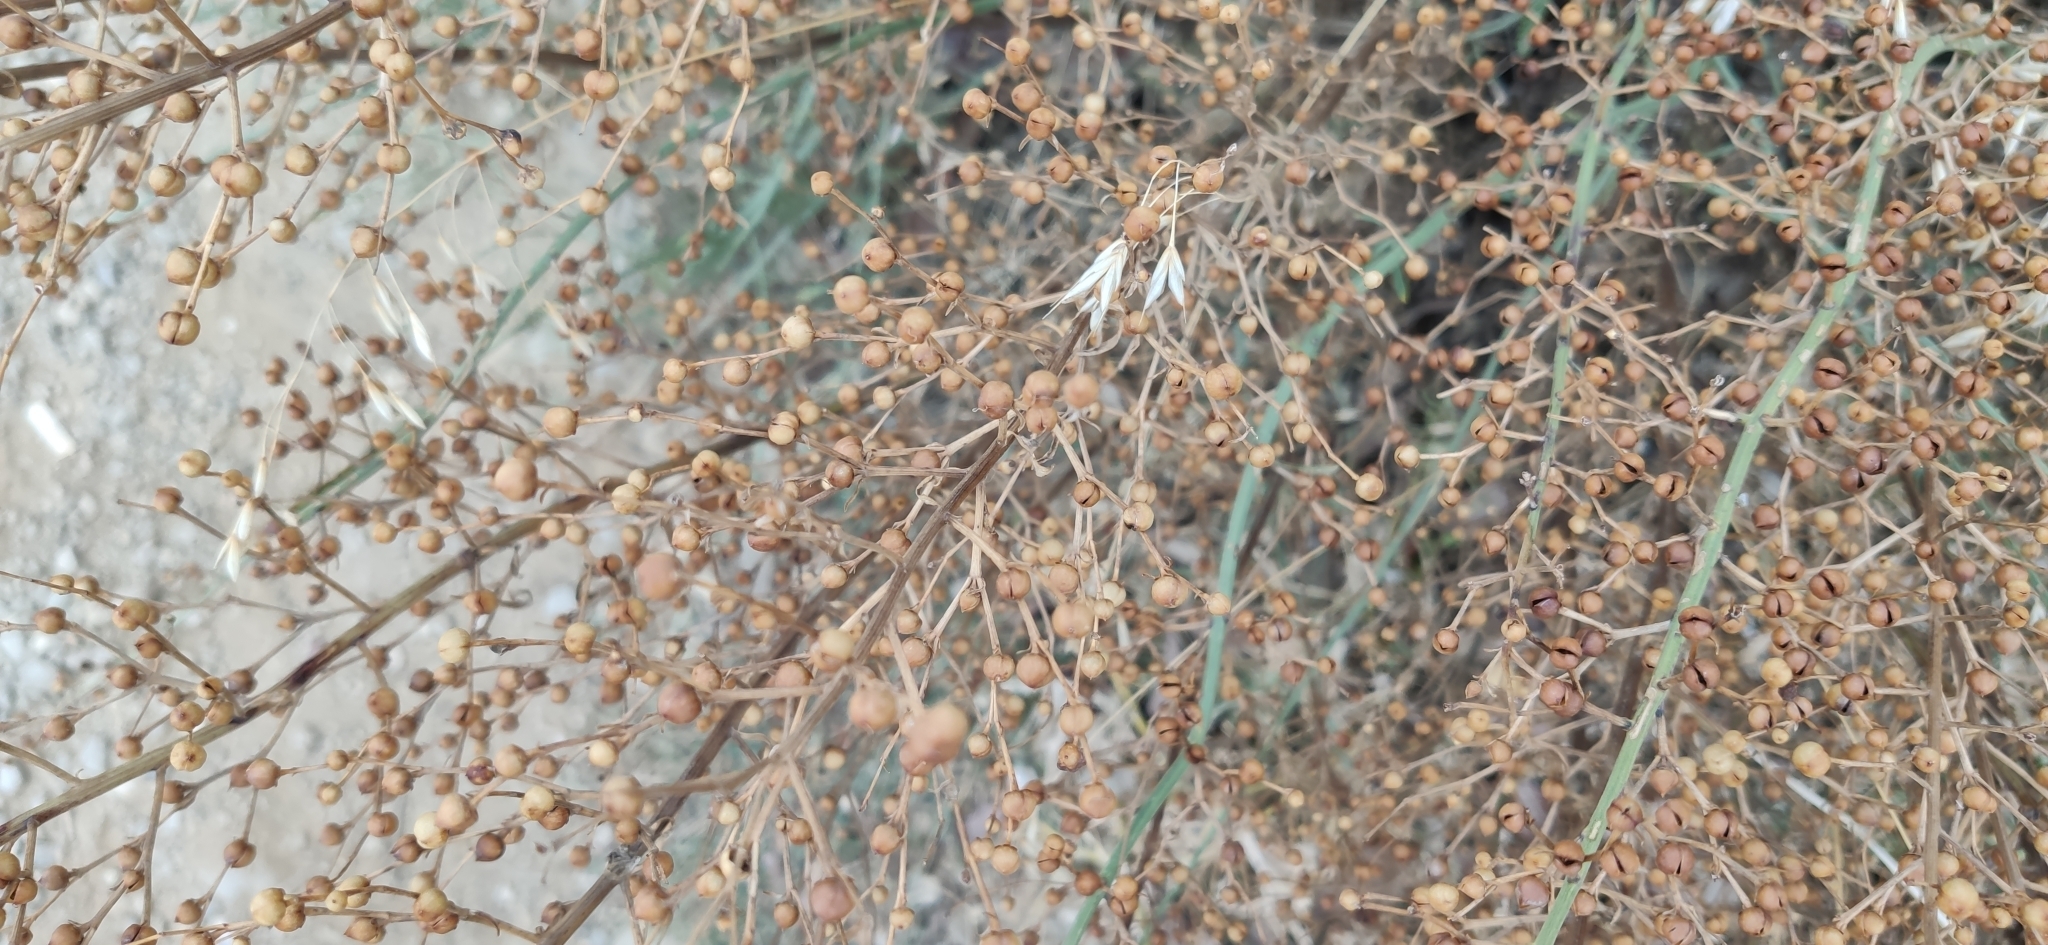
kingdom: Plantae
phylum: Tracheophyta
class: Magnoliopsida
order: Lamiales
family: Scrophulariaceae
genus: Scrophularia
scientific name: Scrophularia canina
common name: French figwort
